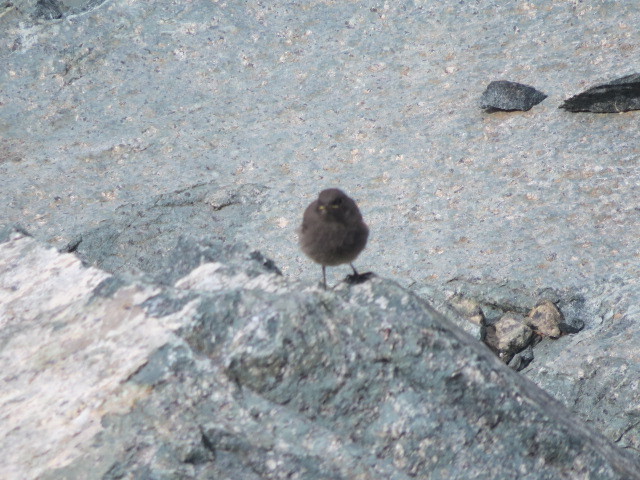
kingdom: Animalia
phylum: Chordata
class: Aves
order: Passeriformes
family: Muscicapidae
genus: Phoenicurus
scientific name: Phoenicurus ochruros
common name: Black redstart
